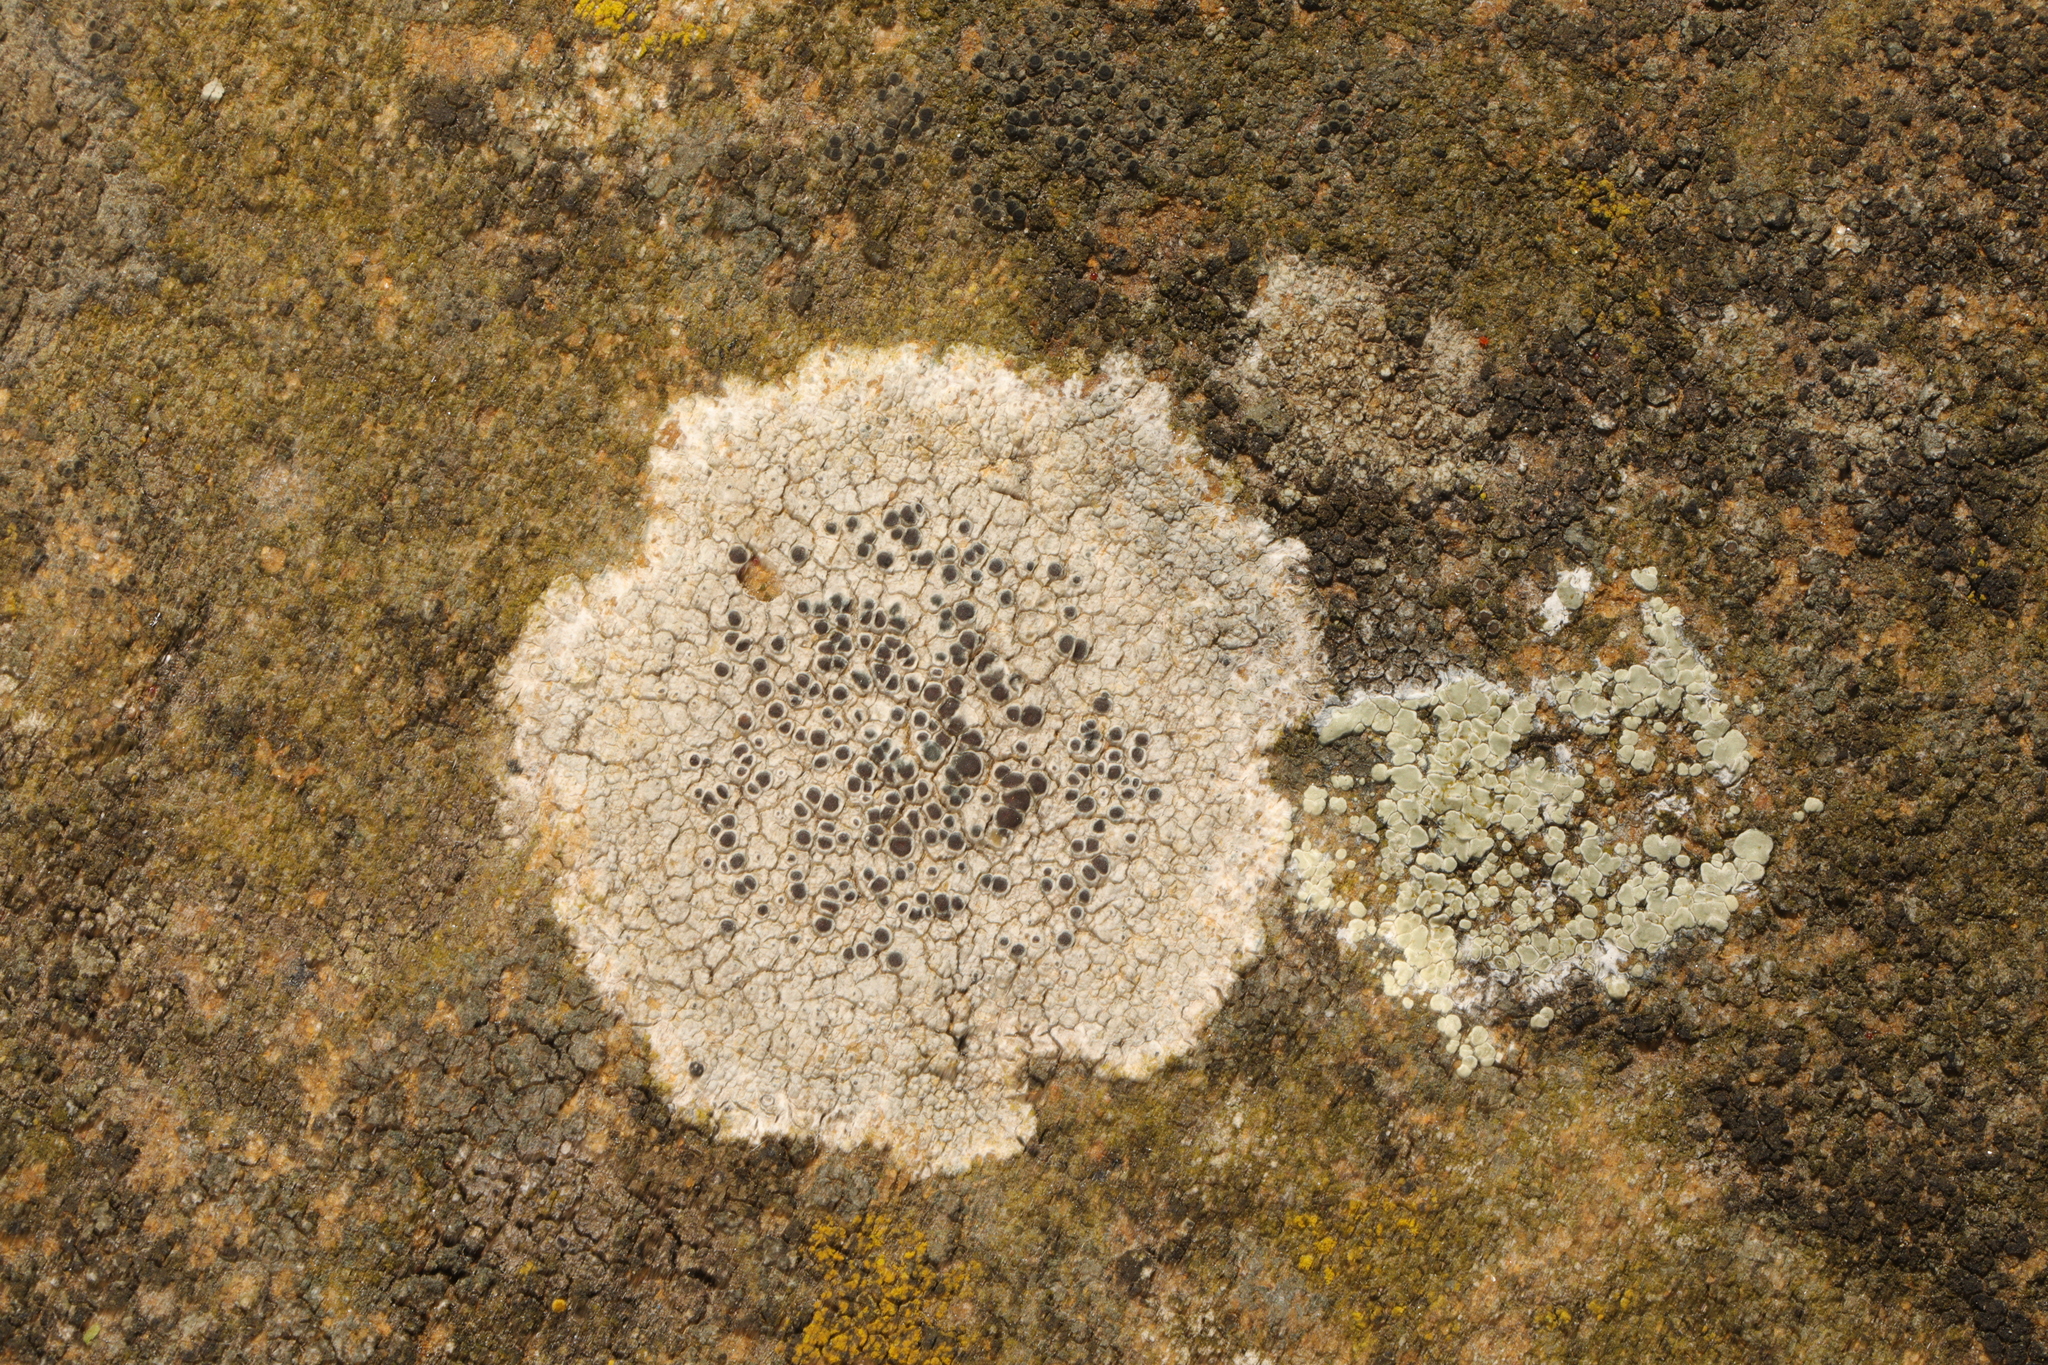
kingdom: Fungi
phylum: Ascomycota
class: Lecanoromycetes
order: Lecanorales
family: Lecanoraceae
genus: Lecanora
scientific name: Lecanora campestris
